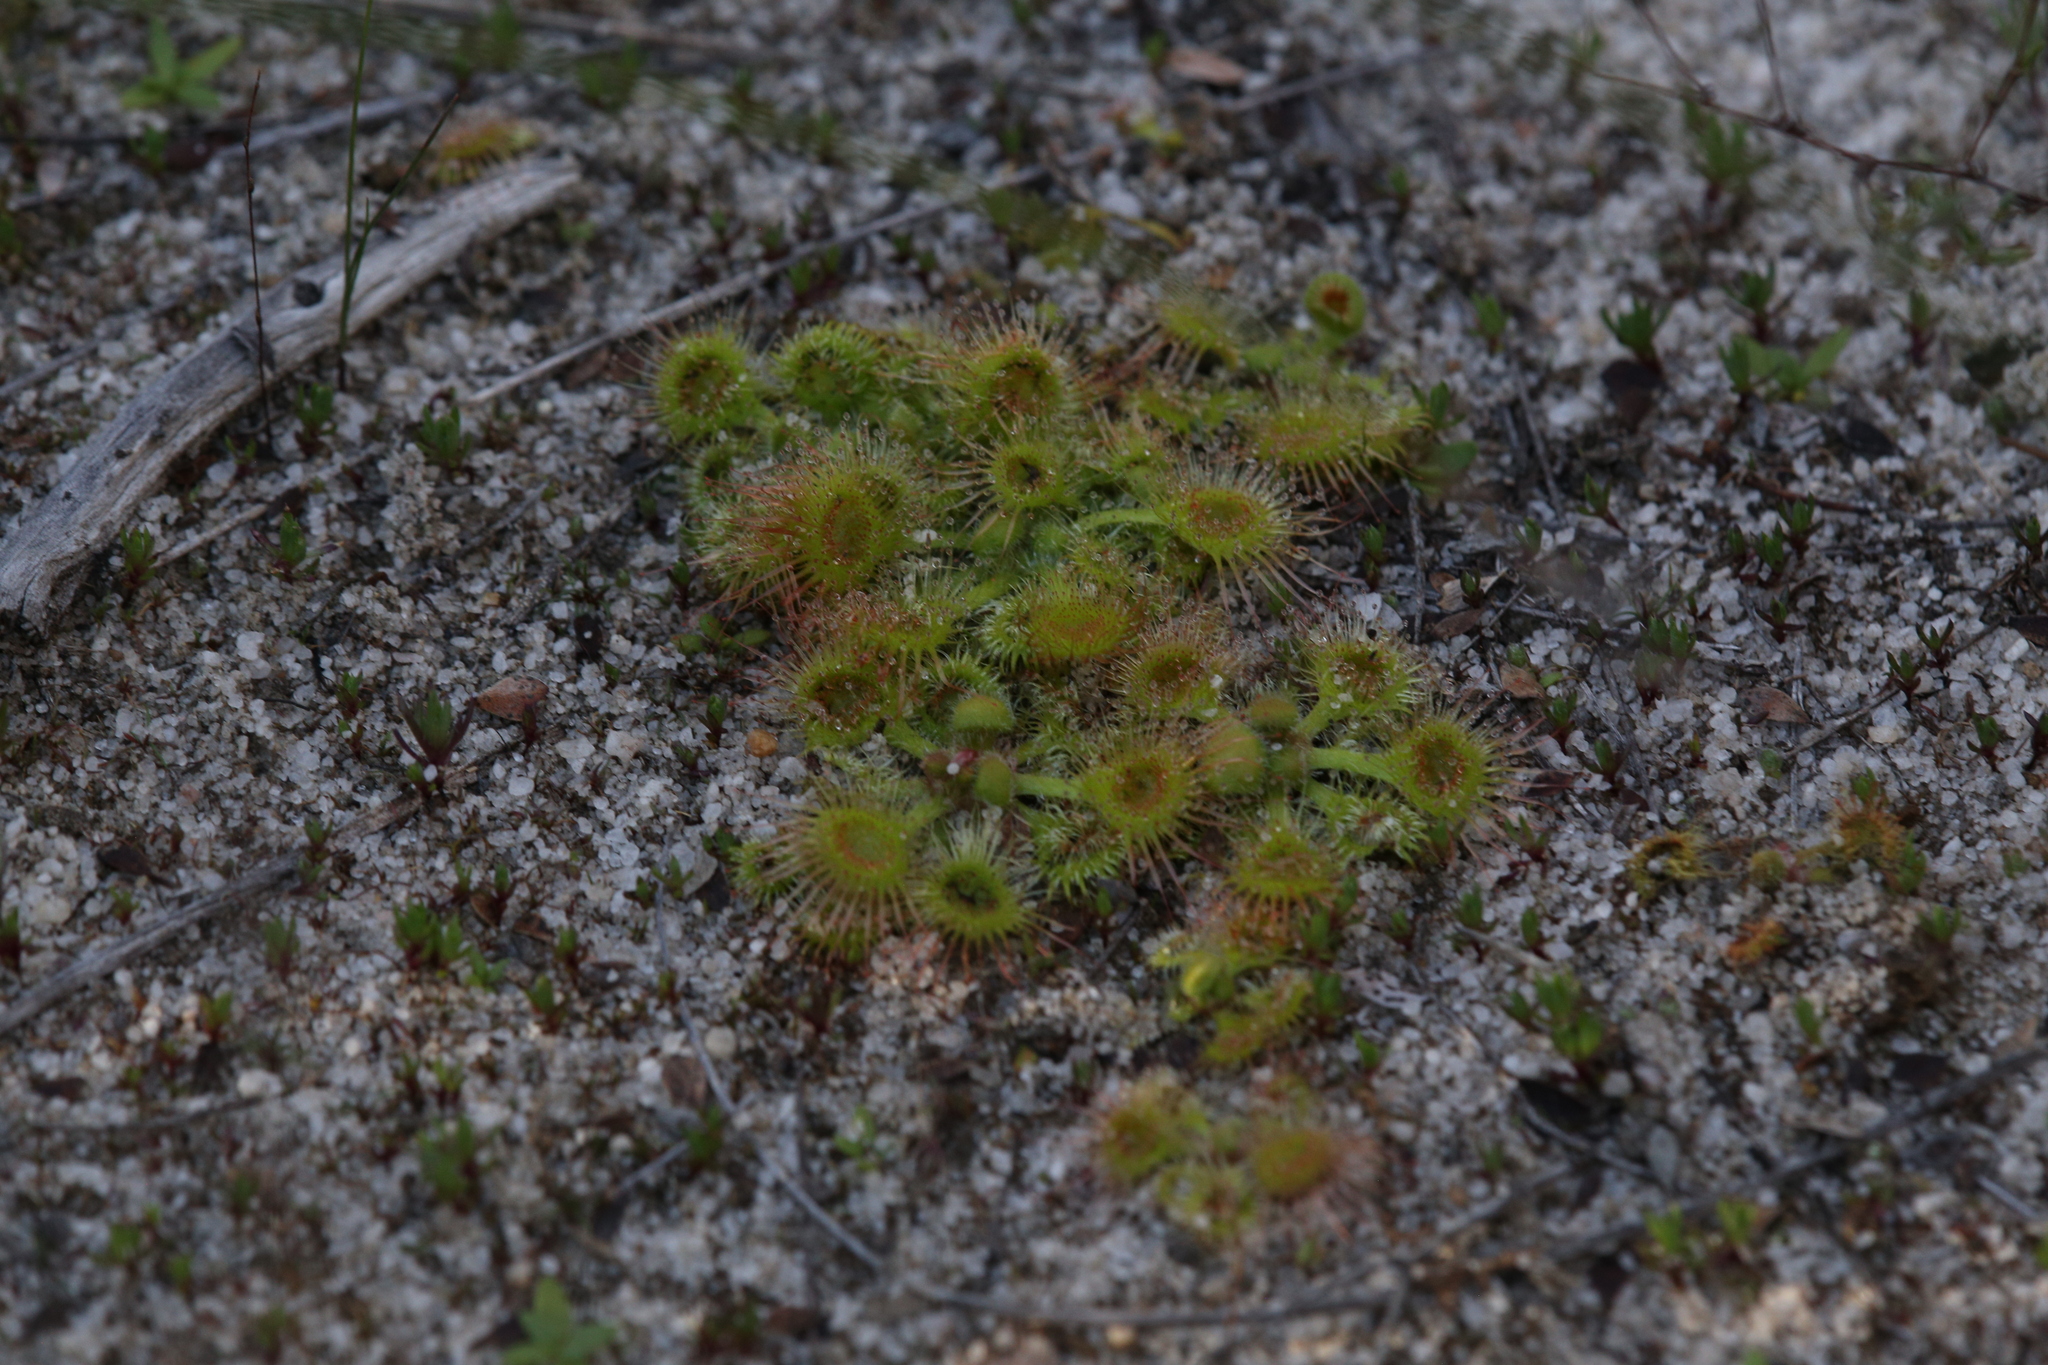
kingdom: Plantae
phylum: Tracheophyta
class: Magnoliopsida
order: Caryophyllales
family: Droseraceae
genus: Drosera
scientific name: Drosera glanduligera
